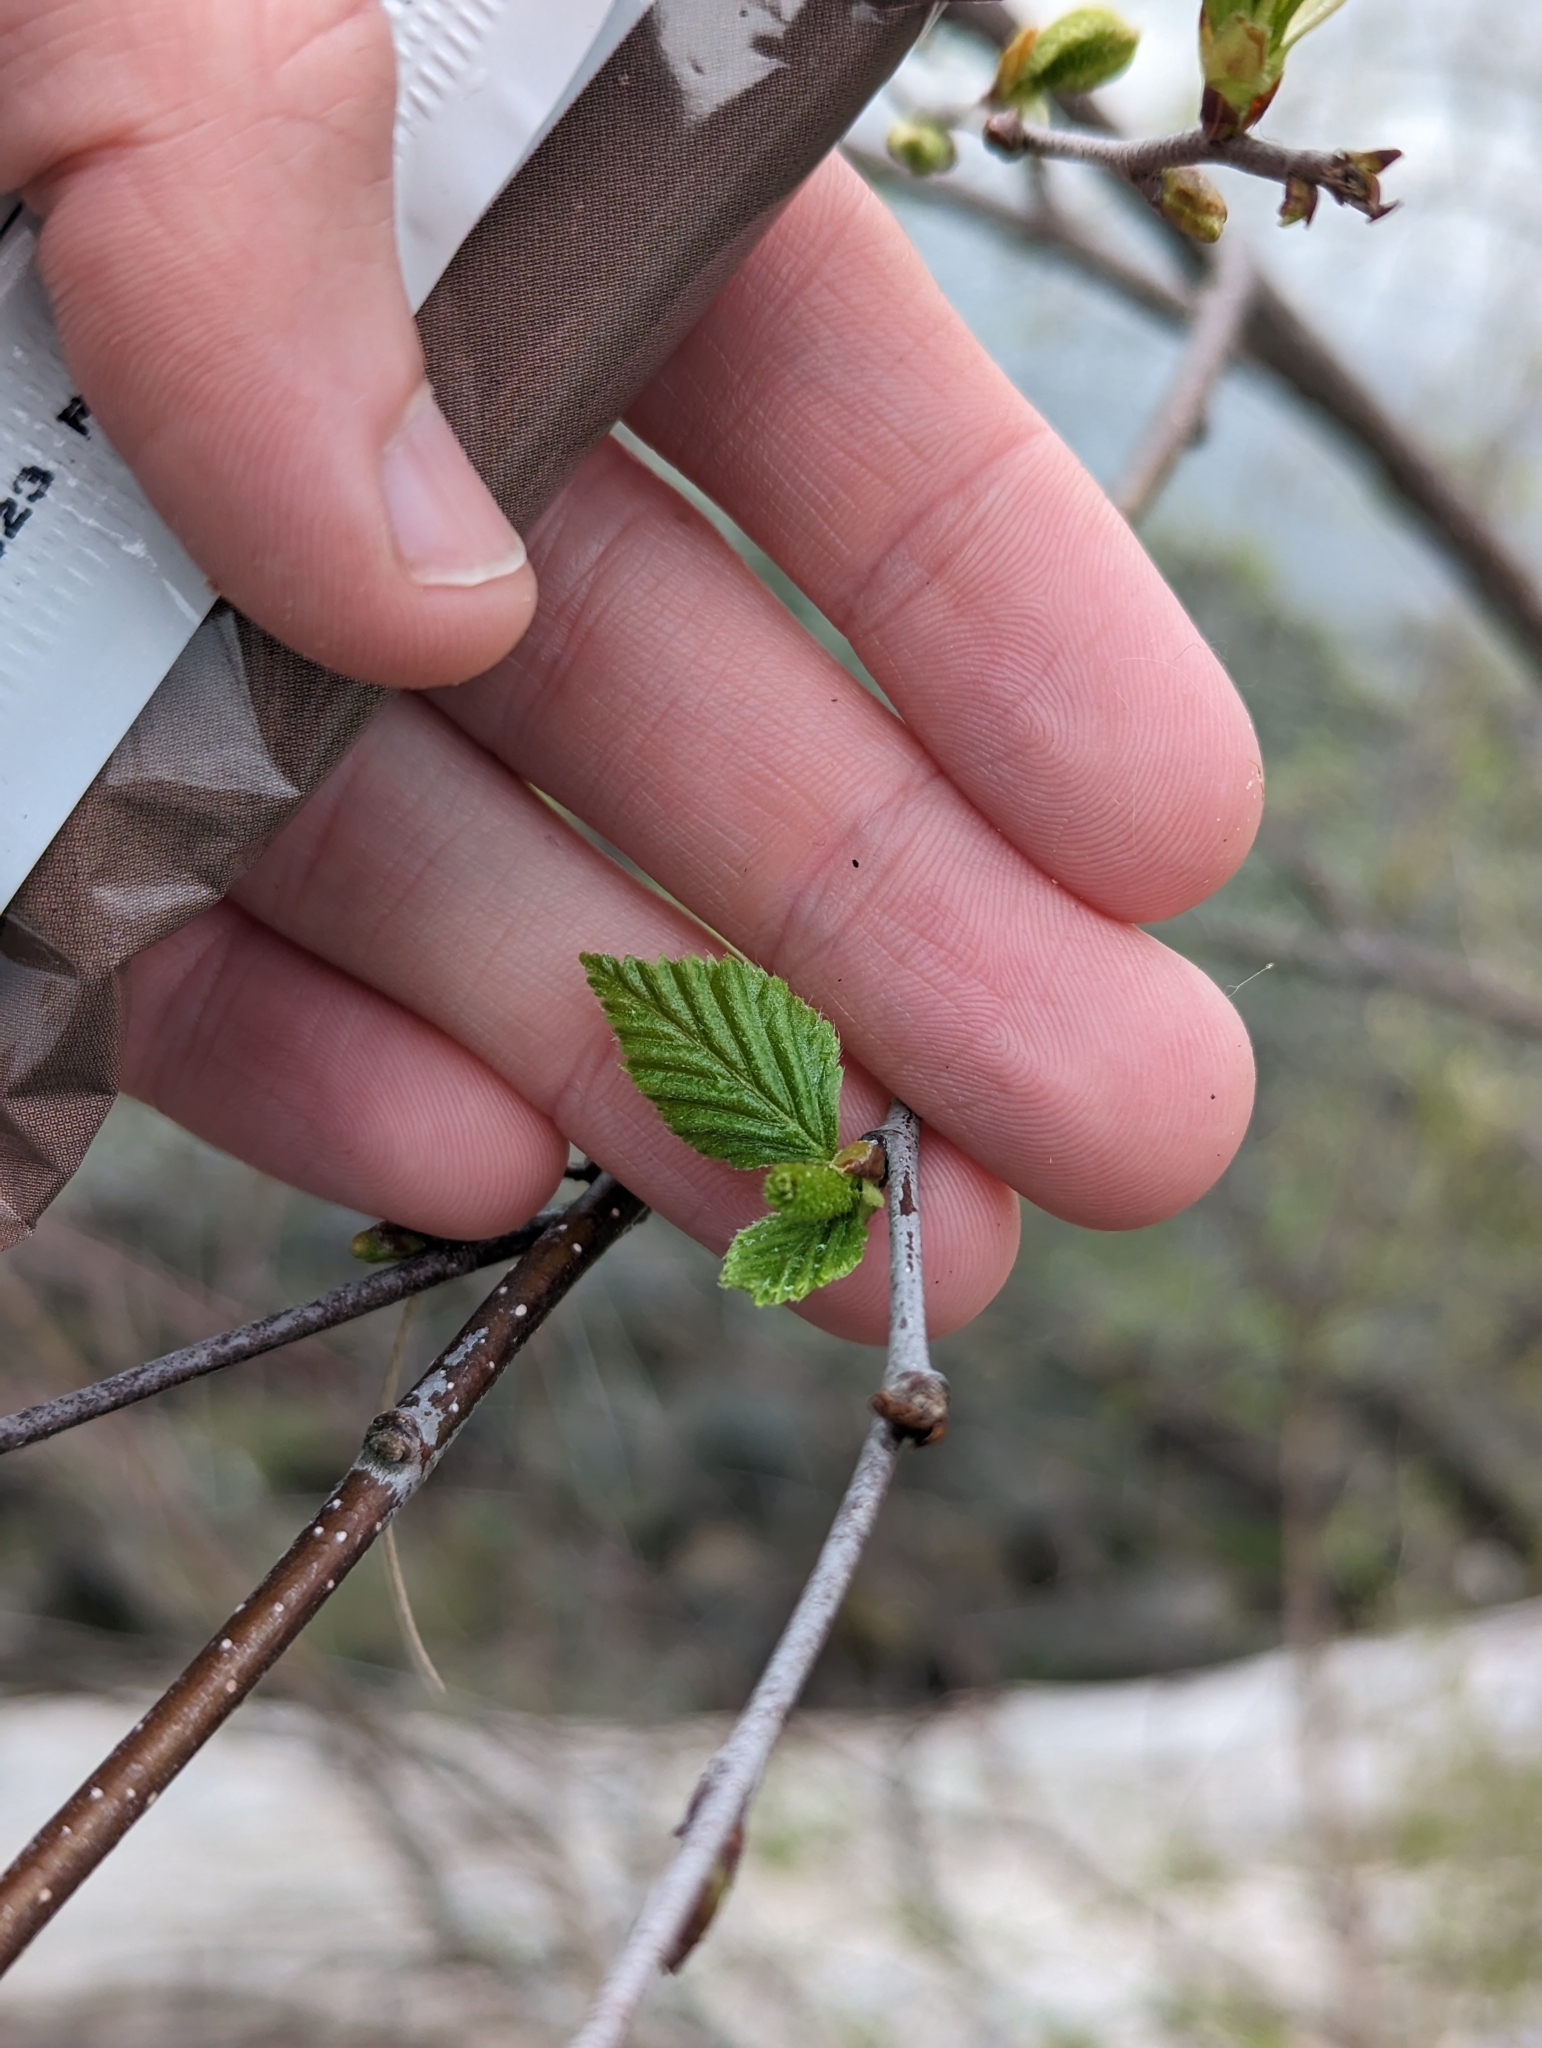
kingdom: Plantae
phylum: Tracheophyta
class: Magnoliopsida
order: Fagales
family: Betulaceae
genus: Betula
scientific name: Betula papyrifera
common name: Paper birch
